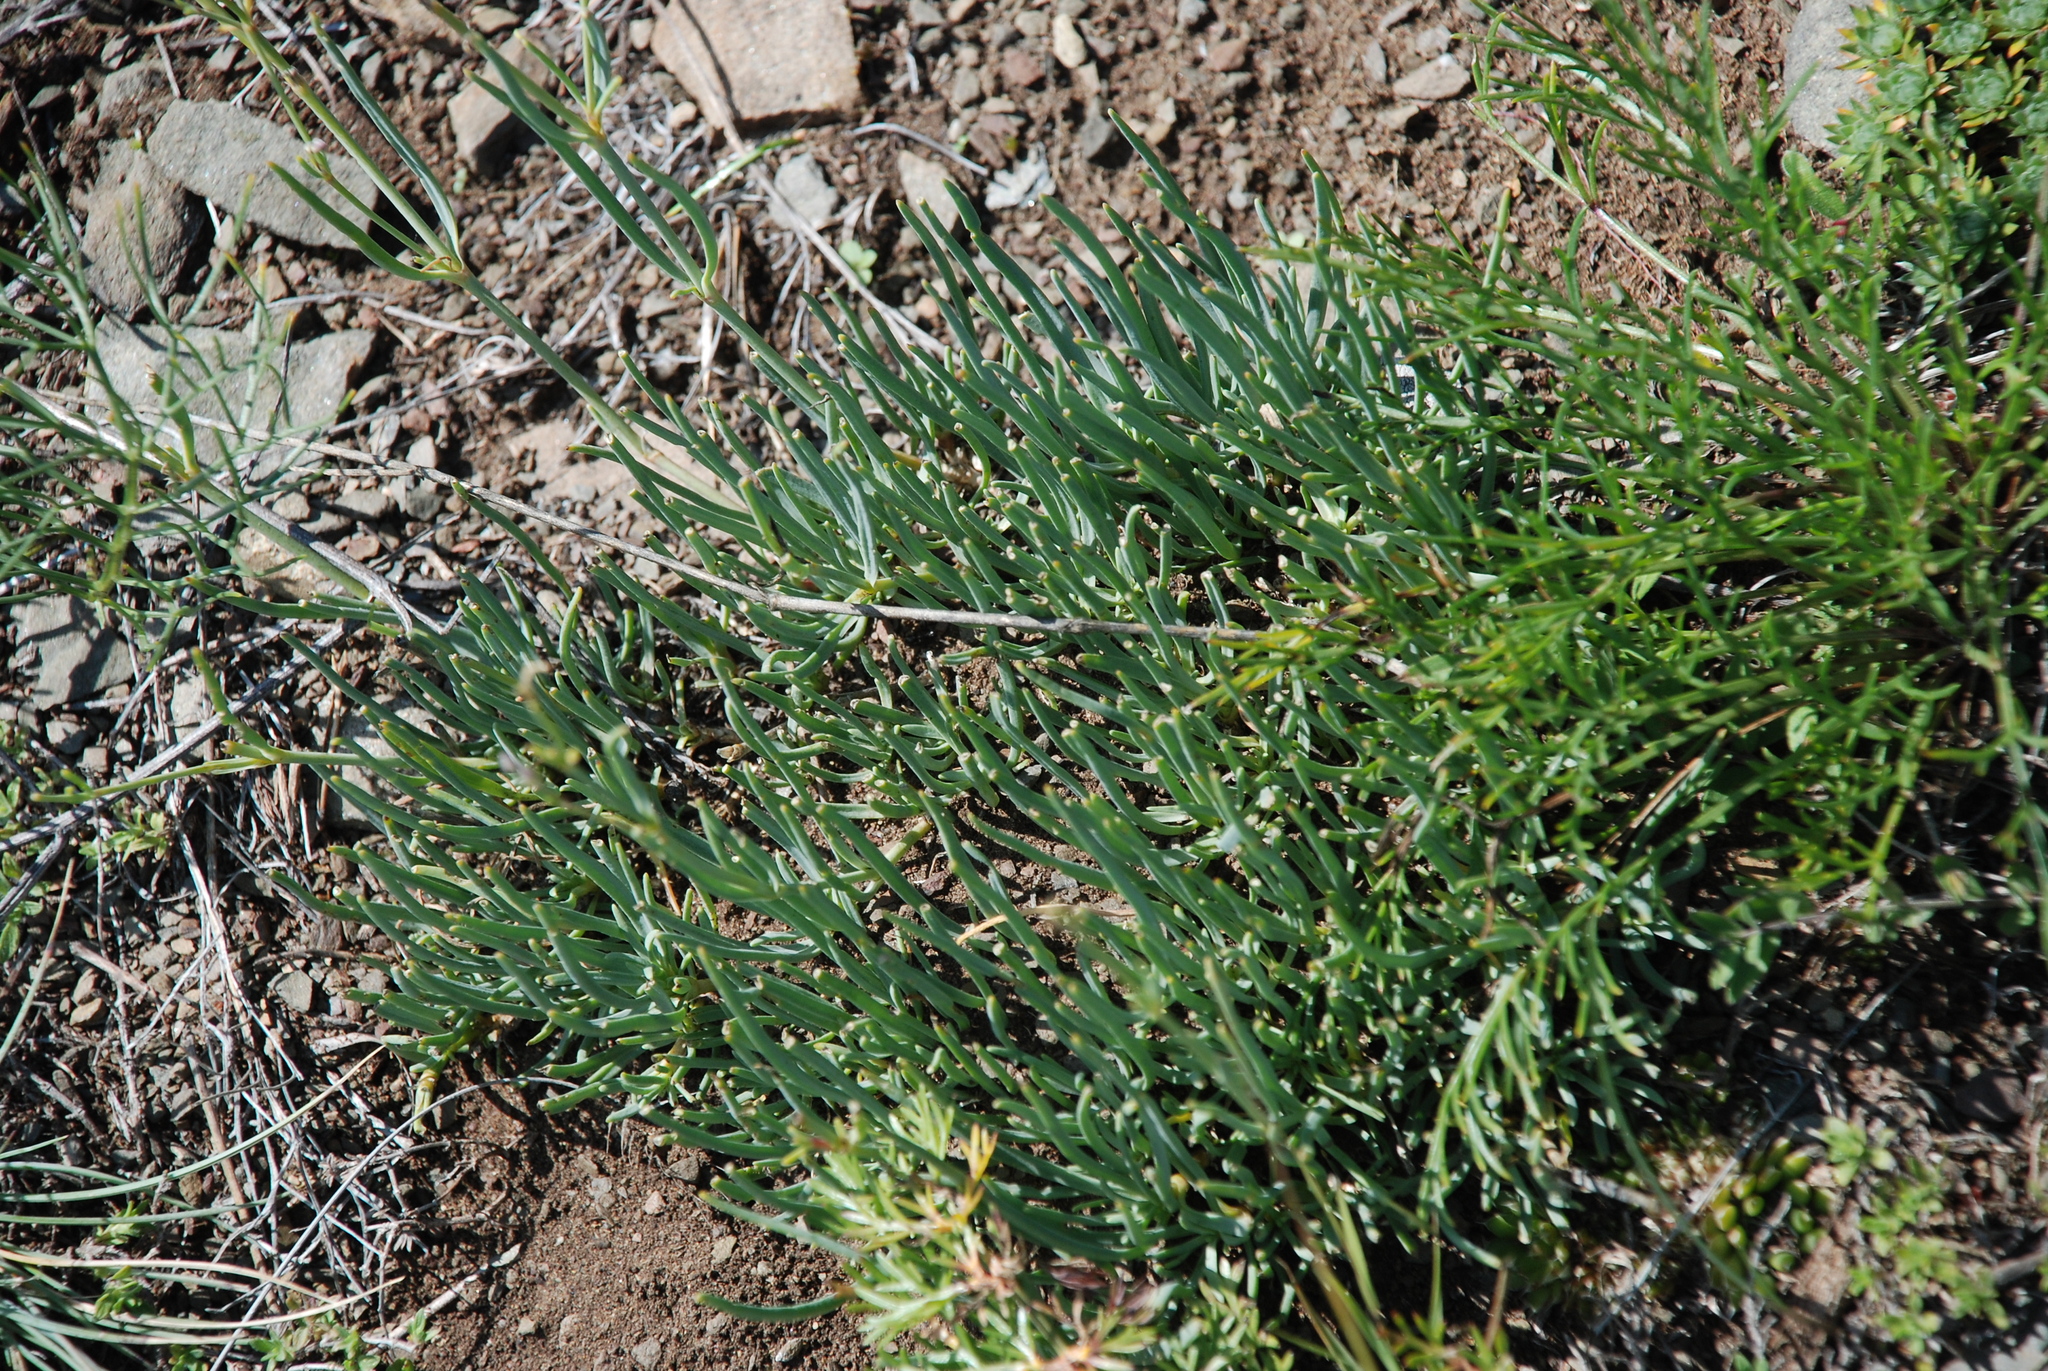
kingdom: Plantae
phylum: Tracheophyta
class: Magnoliopsida
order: Caryophyllales
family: Caryophyllaceae
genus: Gypsophila
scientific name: Gypsophila patrinii
